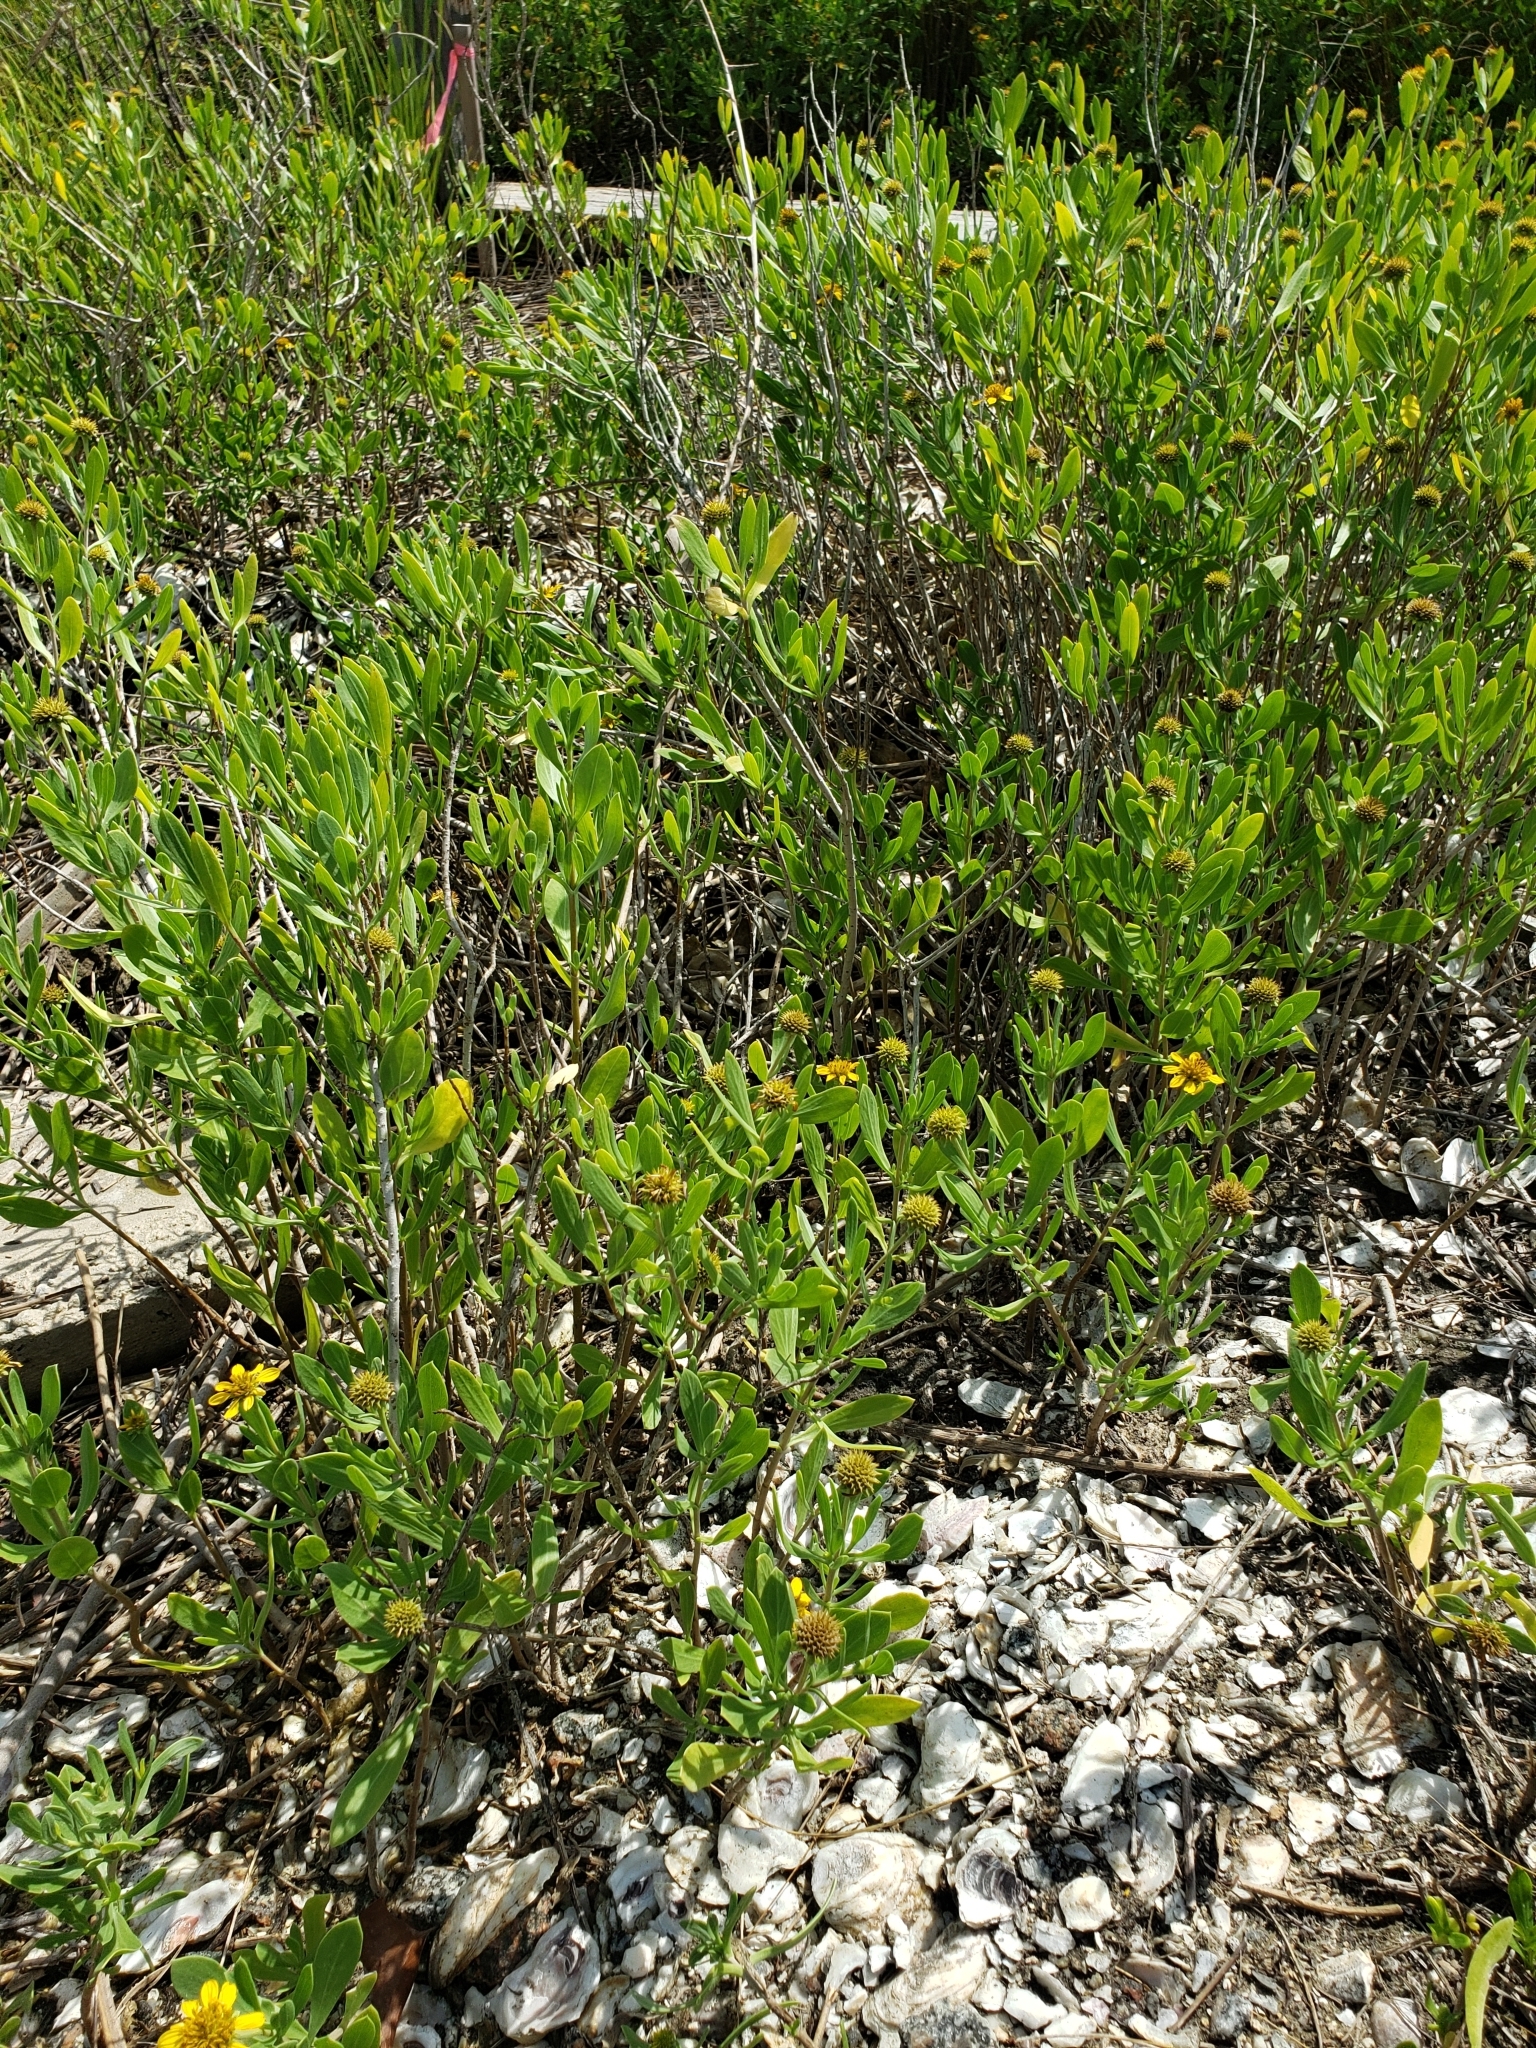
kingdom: Plantae
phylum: Tracheophyta
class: Magnoliopsida
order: Asterales
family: Asteraceae
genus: Borrichia
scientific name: Borrichia frutescens
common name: Sea oxeye
